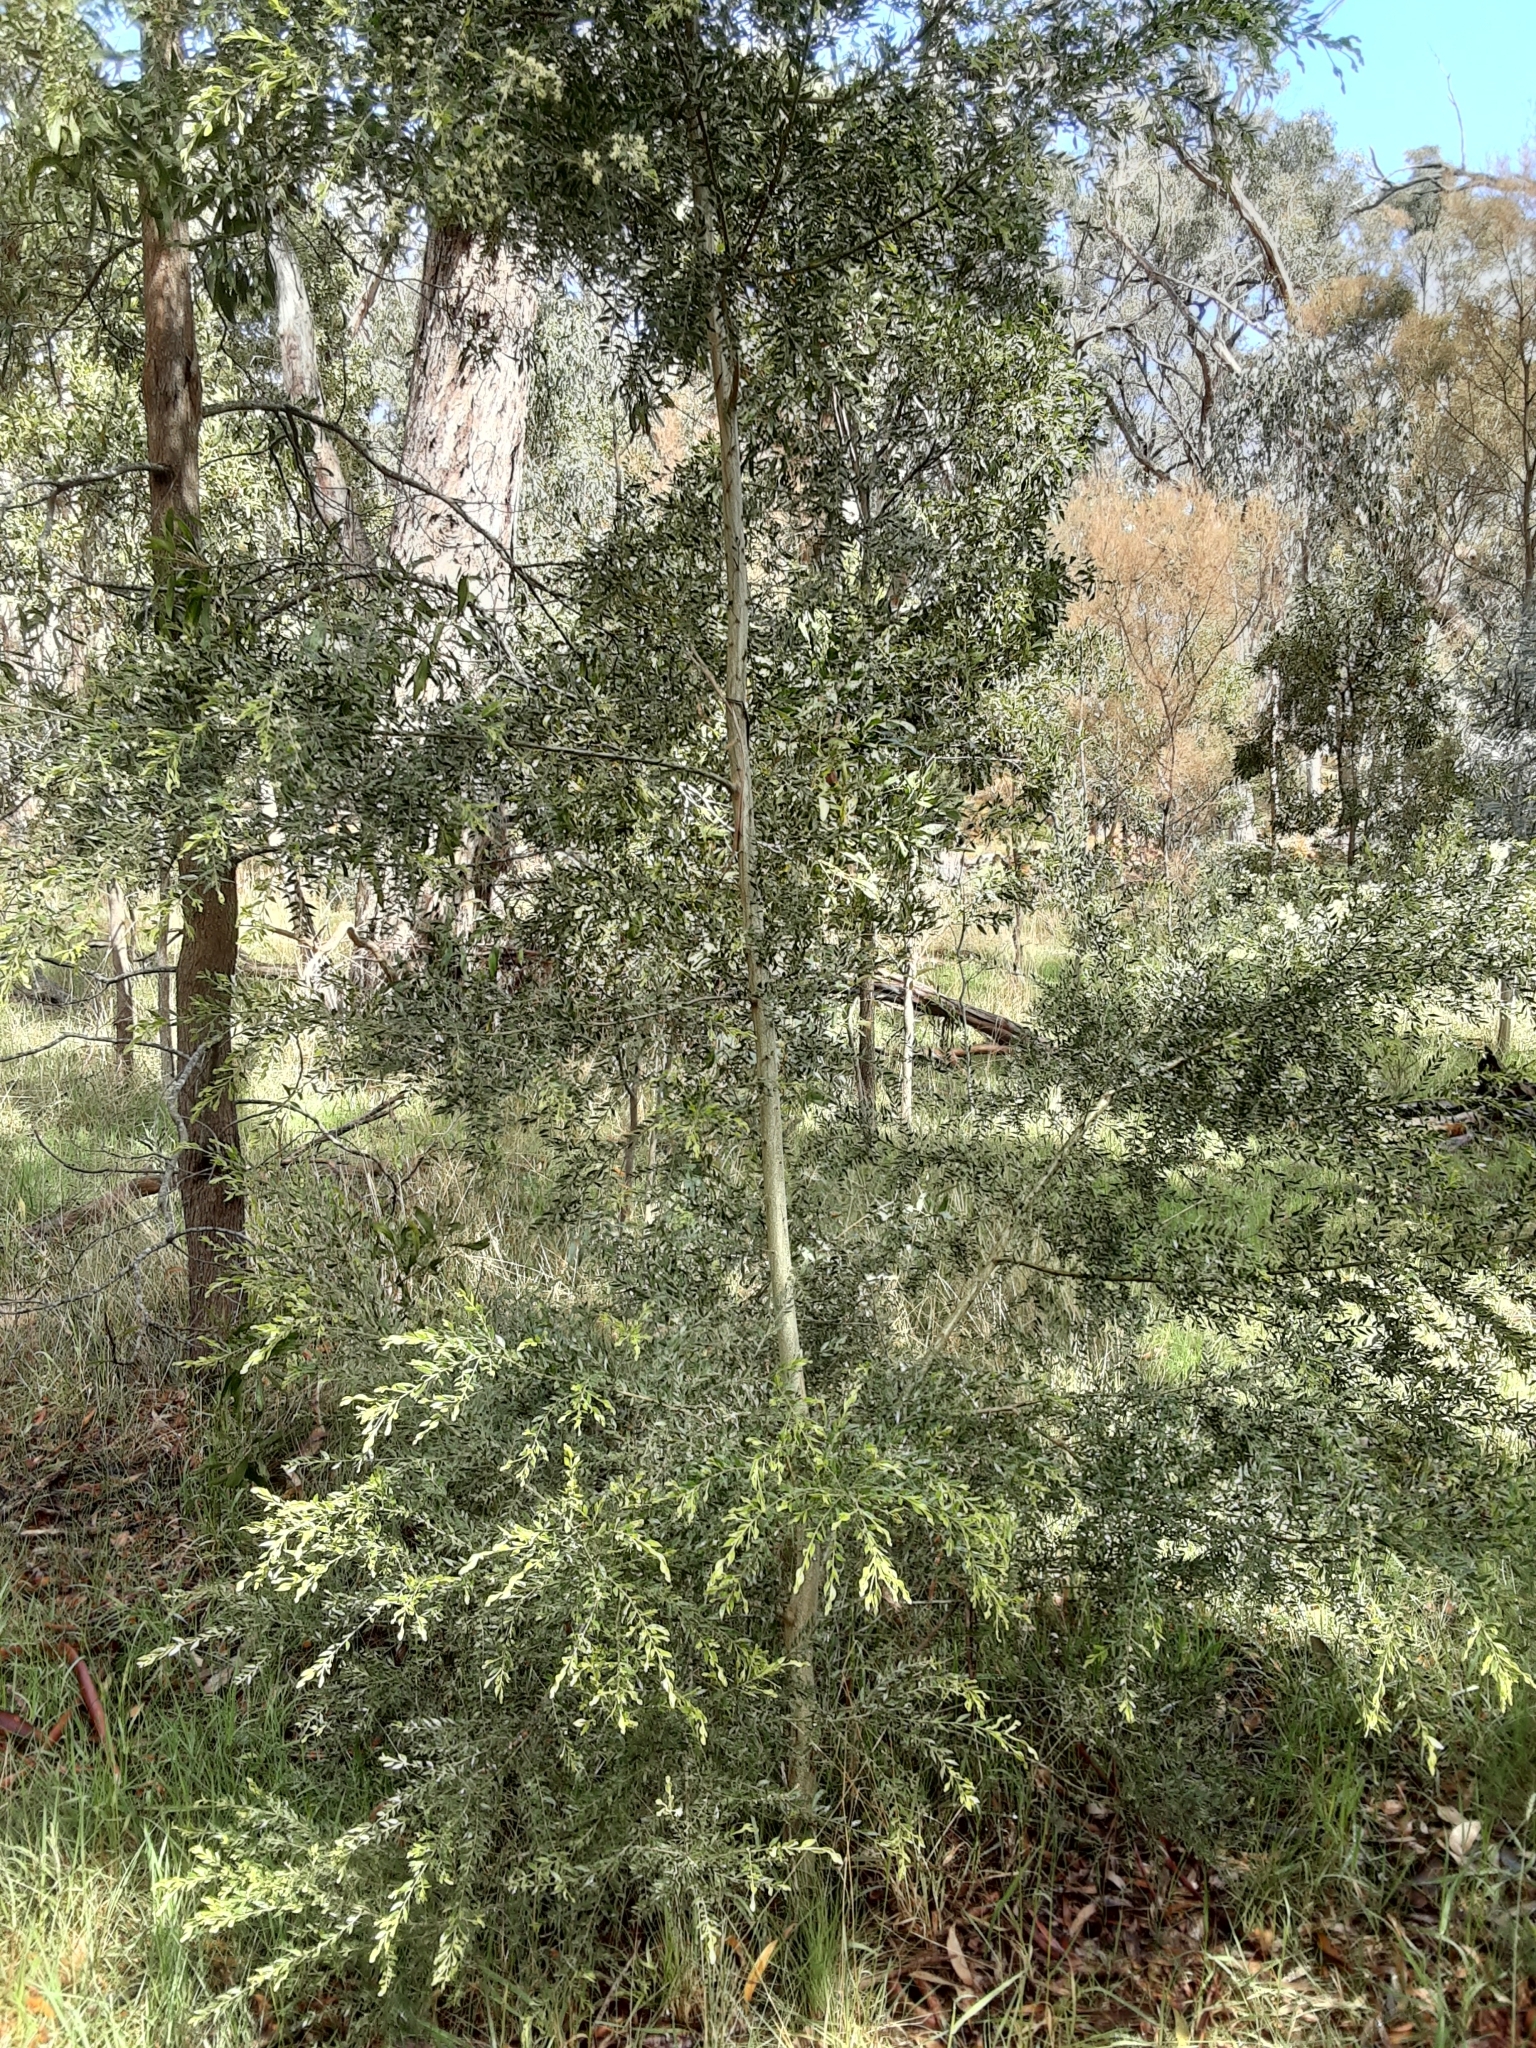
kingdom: Plantae
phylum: Tracheophyta
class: Magnoliopsida
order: Fabales
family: Fabaceae
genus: Acacia
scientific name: Acacia howittii
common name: Sticky wattle
